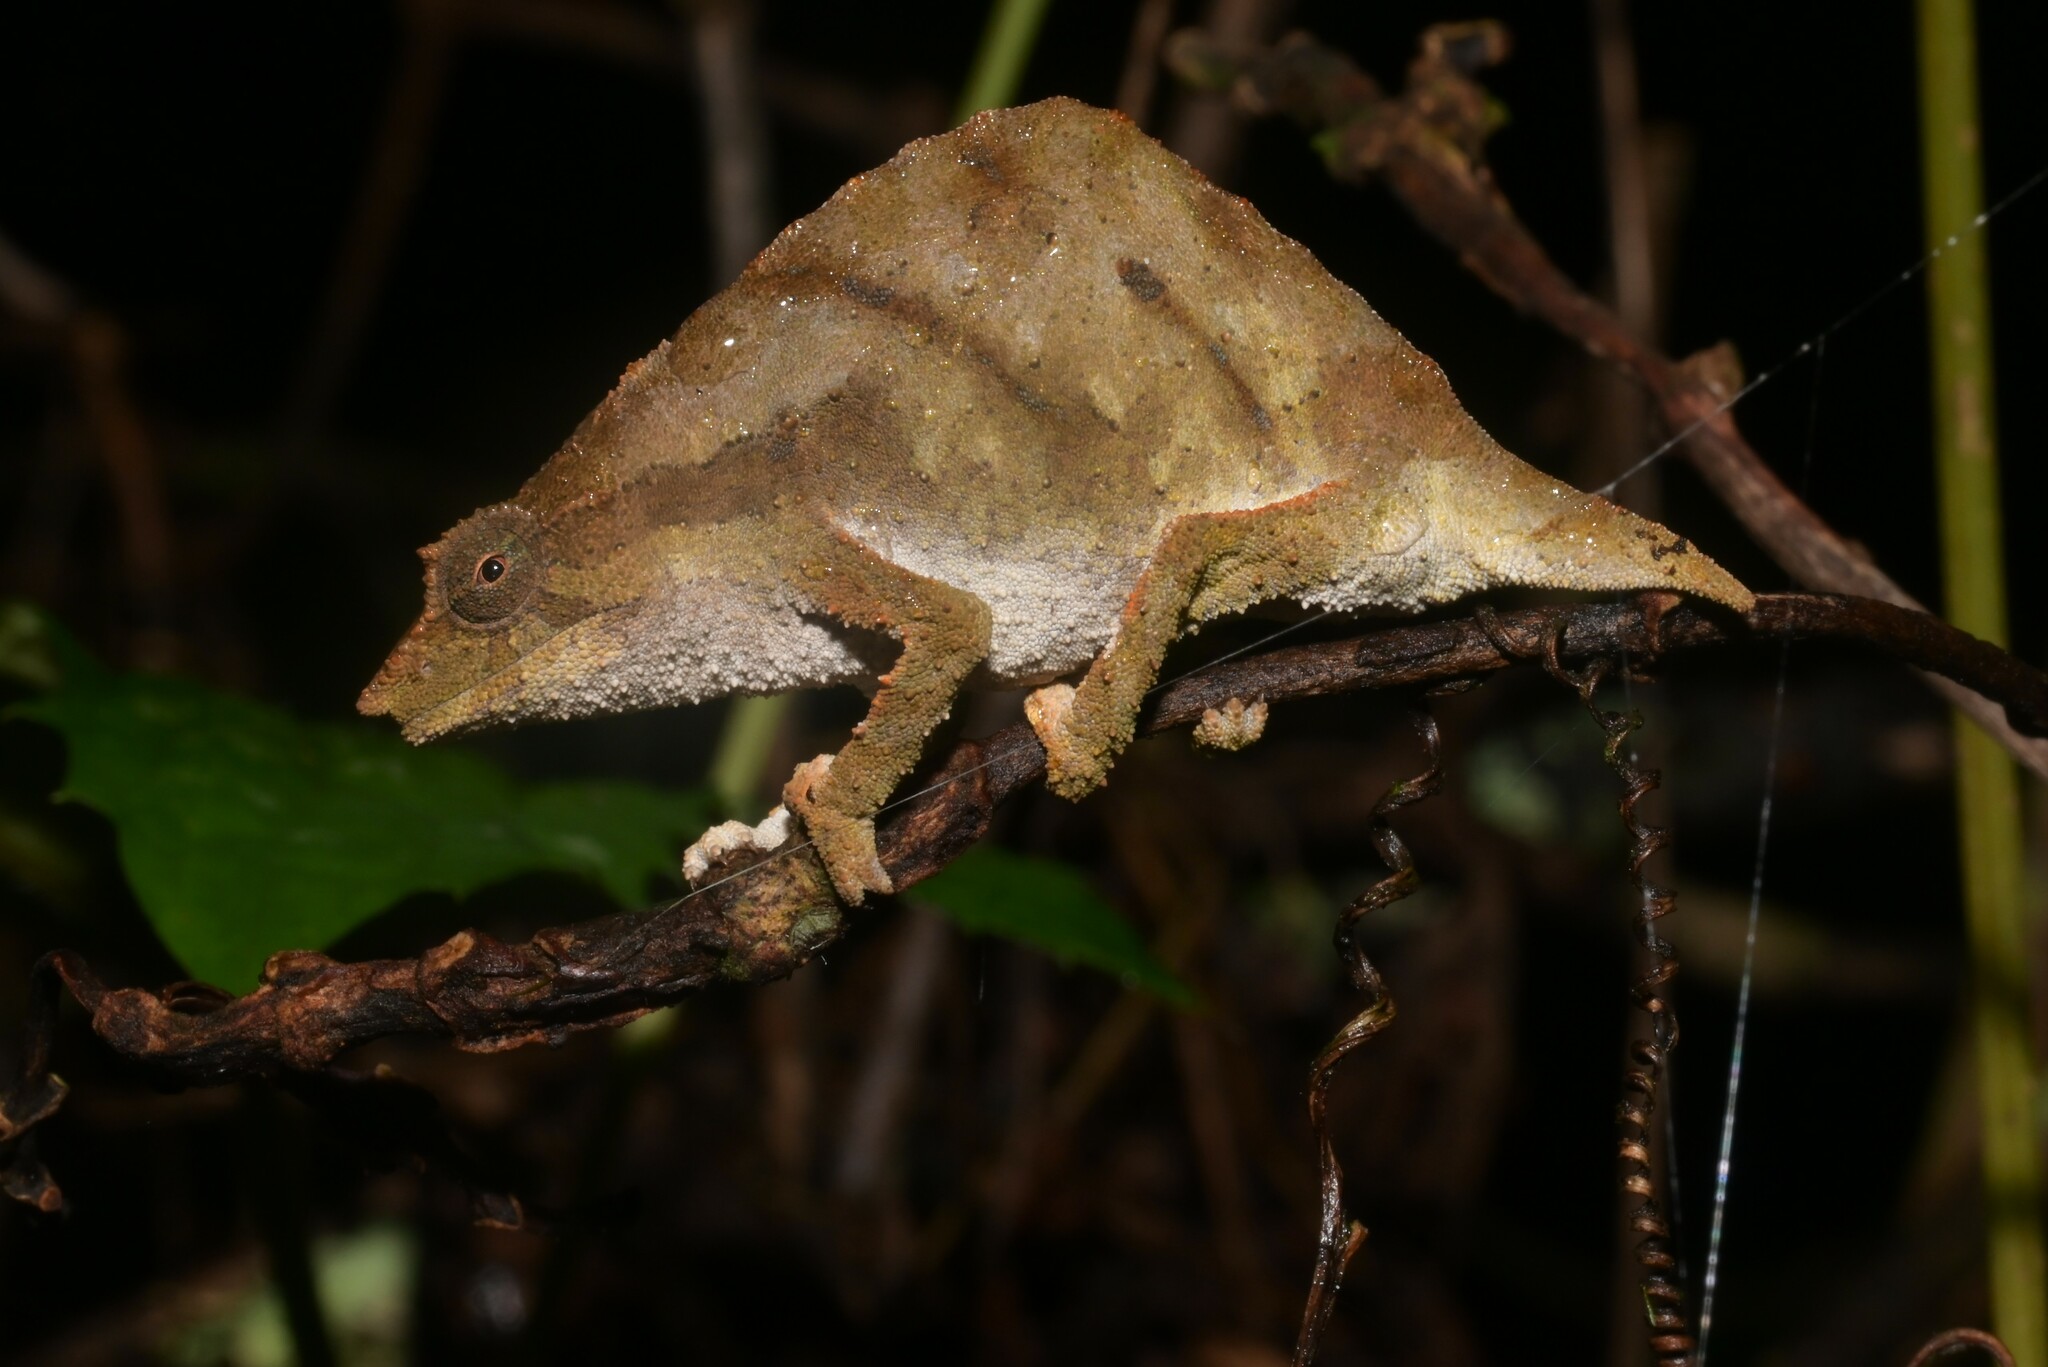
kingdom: Animalia
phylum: Chordata
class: Squamata
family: Chamaeleonidae
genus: Rhampholeon
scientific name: Rhampholeon nchisiensis
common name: South african stumptail chameleon
